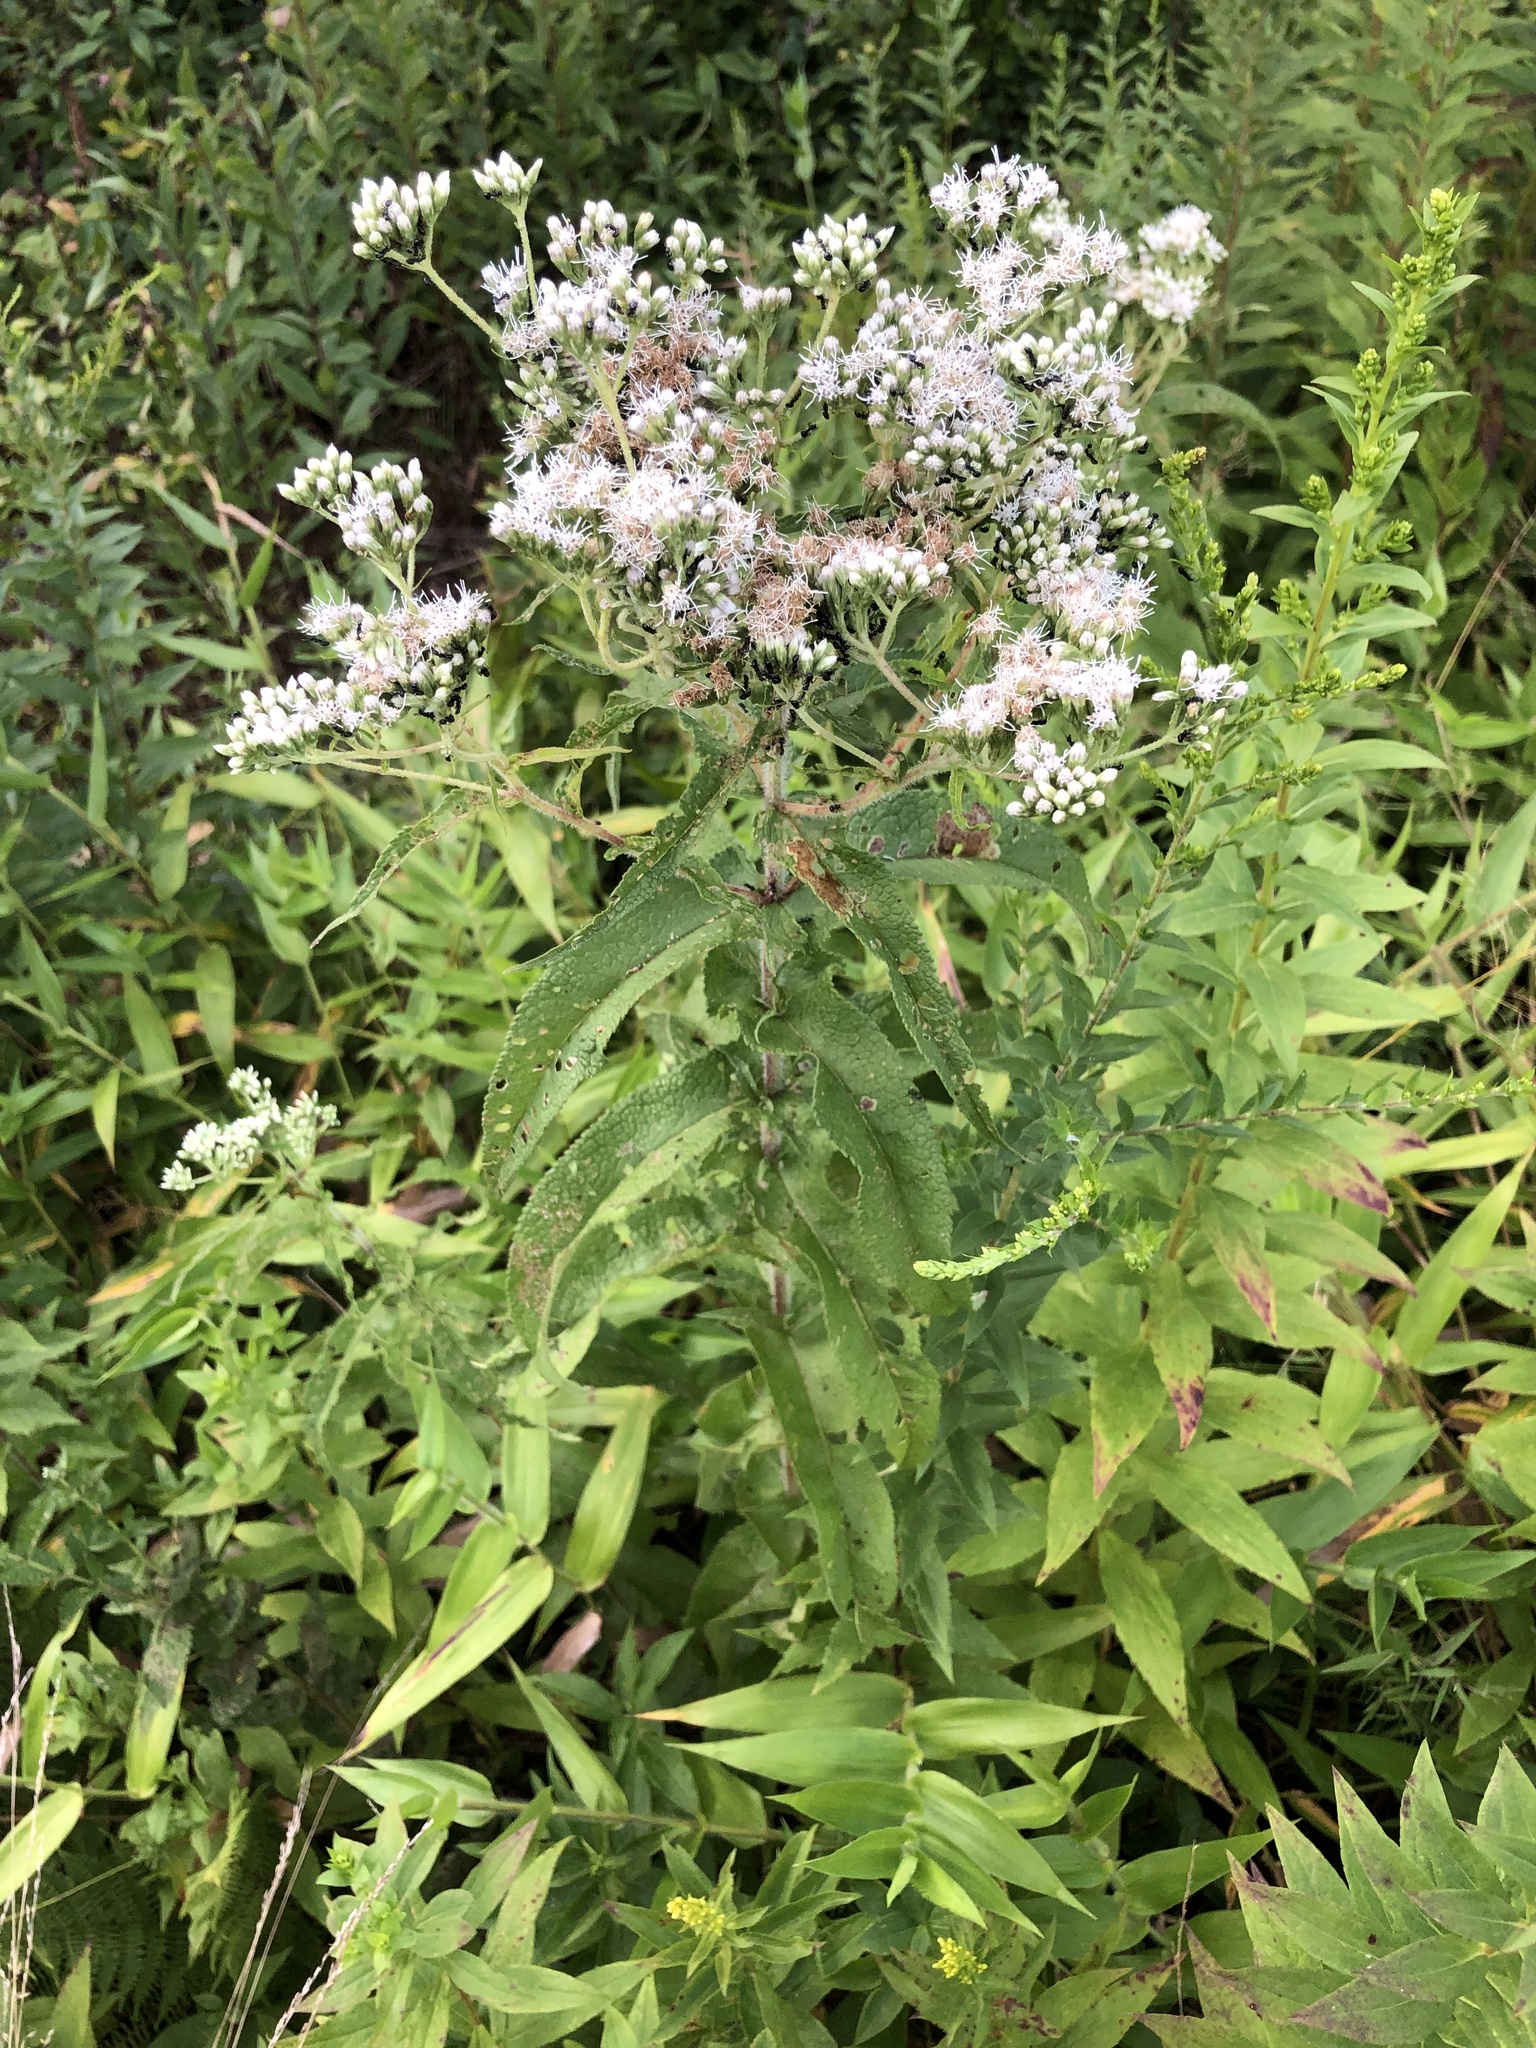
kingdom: Plantae
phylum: Tracheophyta
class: Magnoliopsida
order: Asterales
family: Asteraceae
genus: Eupatorium
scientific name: Eupatorium perfoliatum
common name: Boneset
